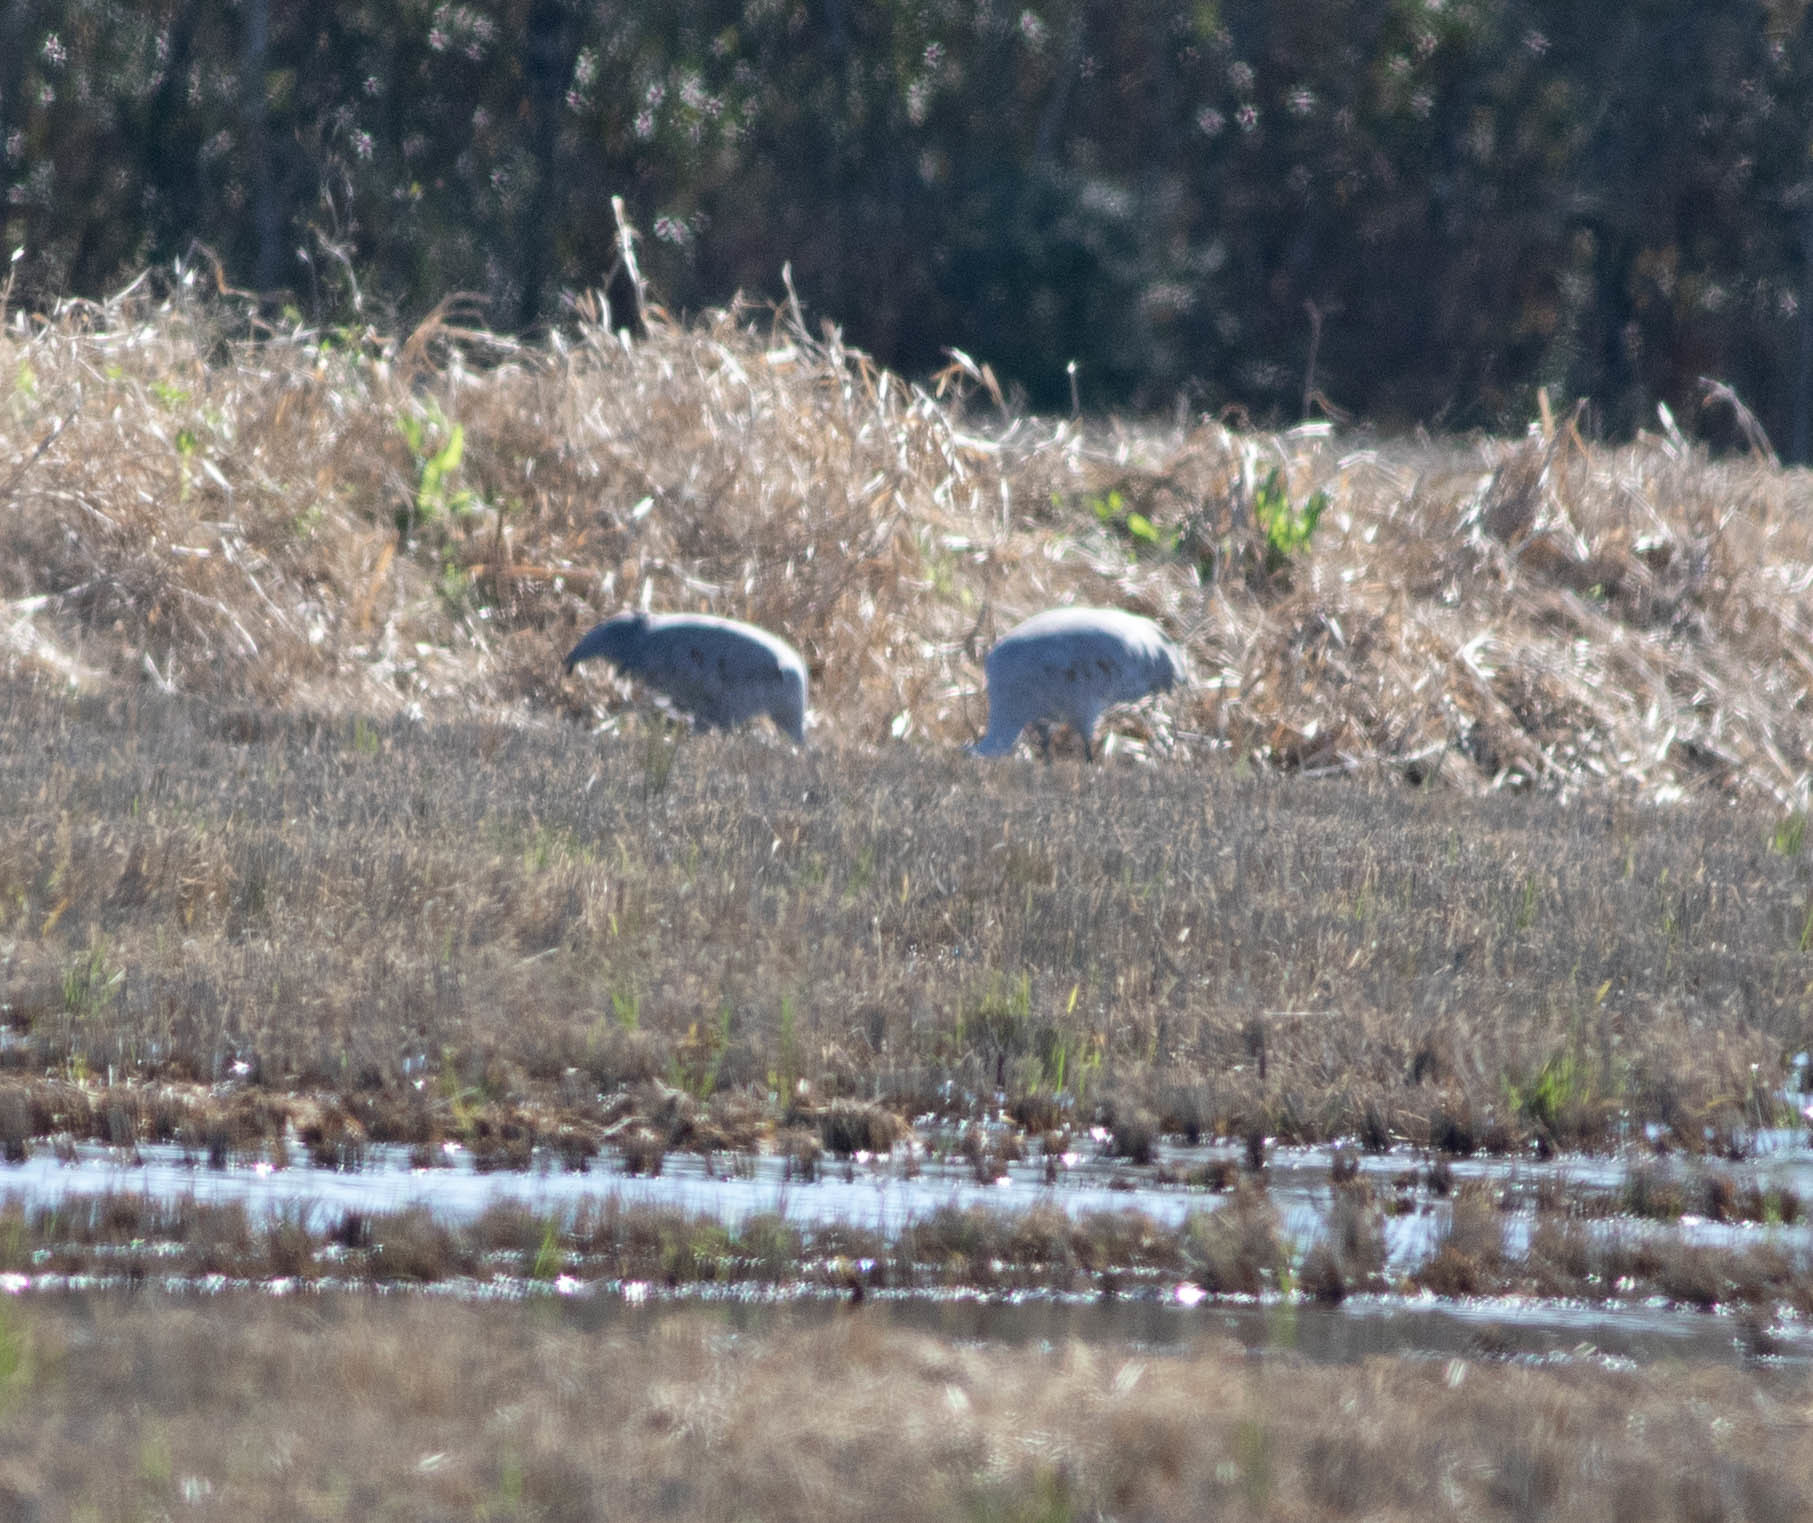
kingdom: Animalia
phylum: Chordata
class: Aves
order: Gruiformes
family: Gruidae
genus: Grus
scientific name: Grus canadensis
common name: Sandhill crane
